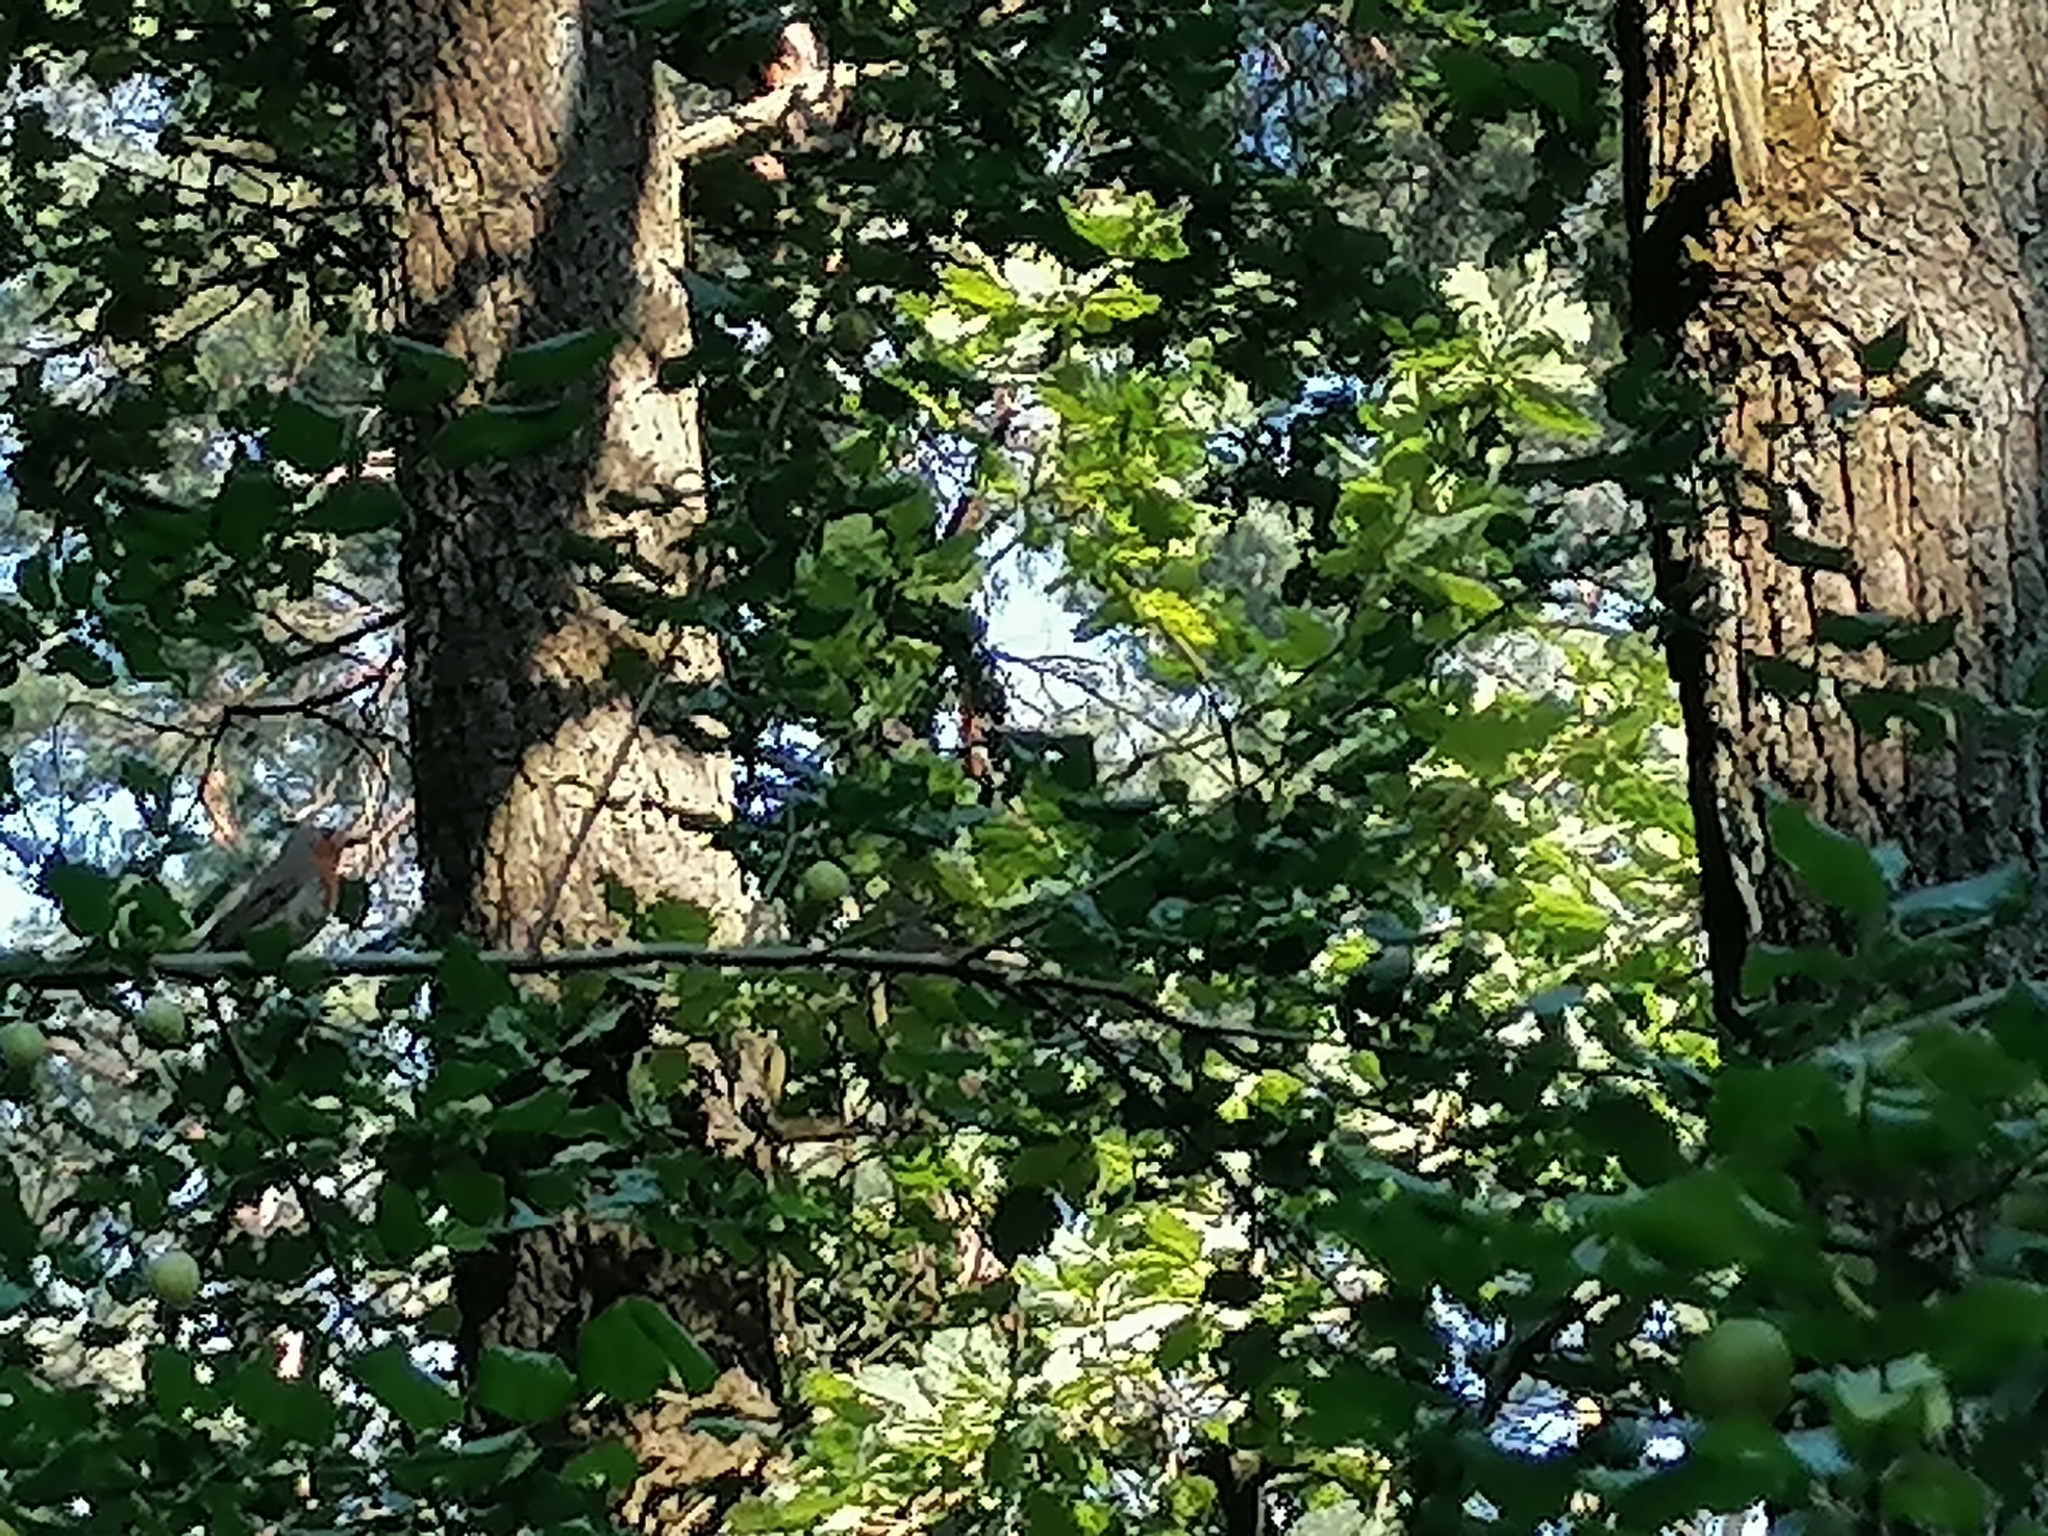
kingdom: Animalia
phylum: Chordata
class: Aves
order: Passeriformes
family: Muscicapidae
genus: Erithacus
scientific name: Erithacus rubecula
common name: European robin
